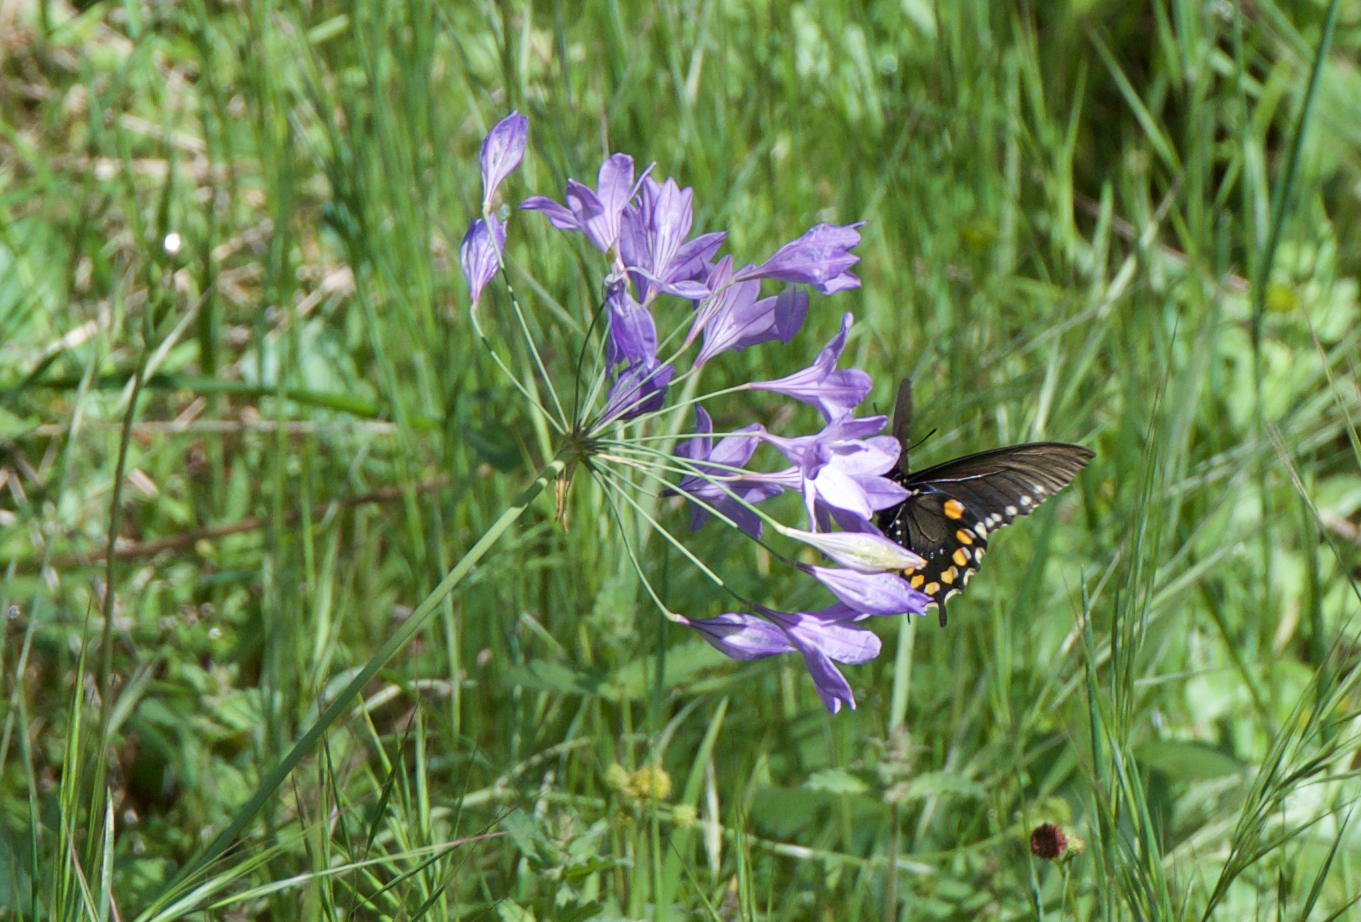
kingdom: Animalia
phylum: Arthropoda
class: Insecta
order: Lepidoptera
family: Papilionidae
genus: Battus
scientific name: Battus philenor
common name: Pipevine swallowtail
